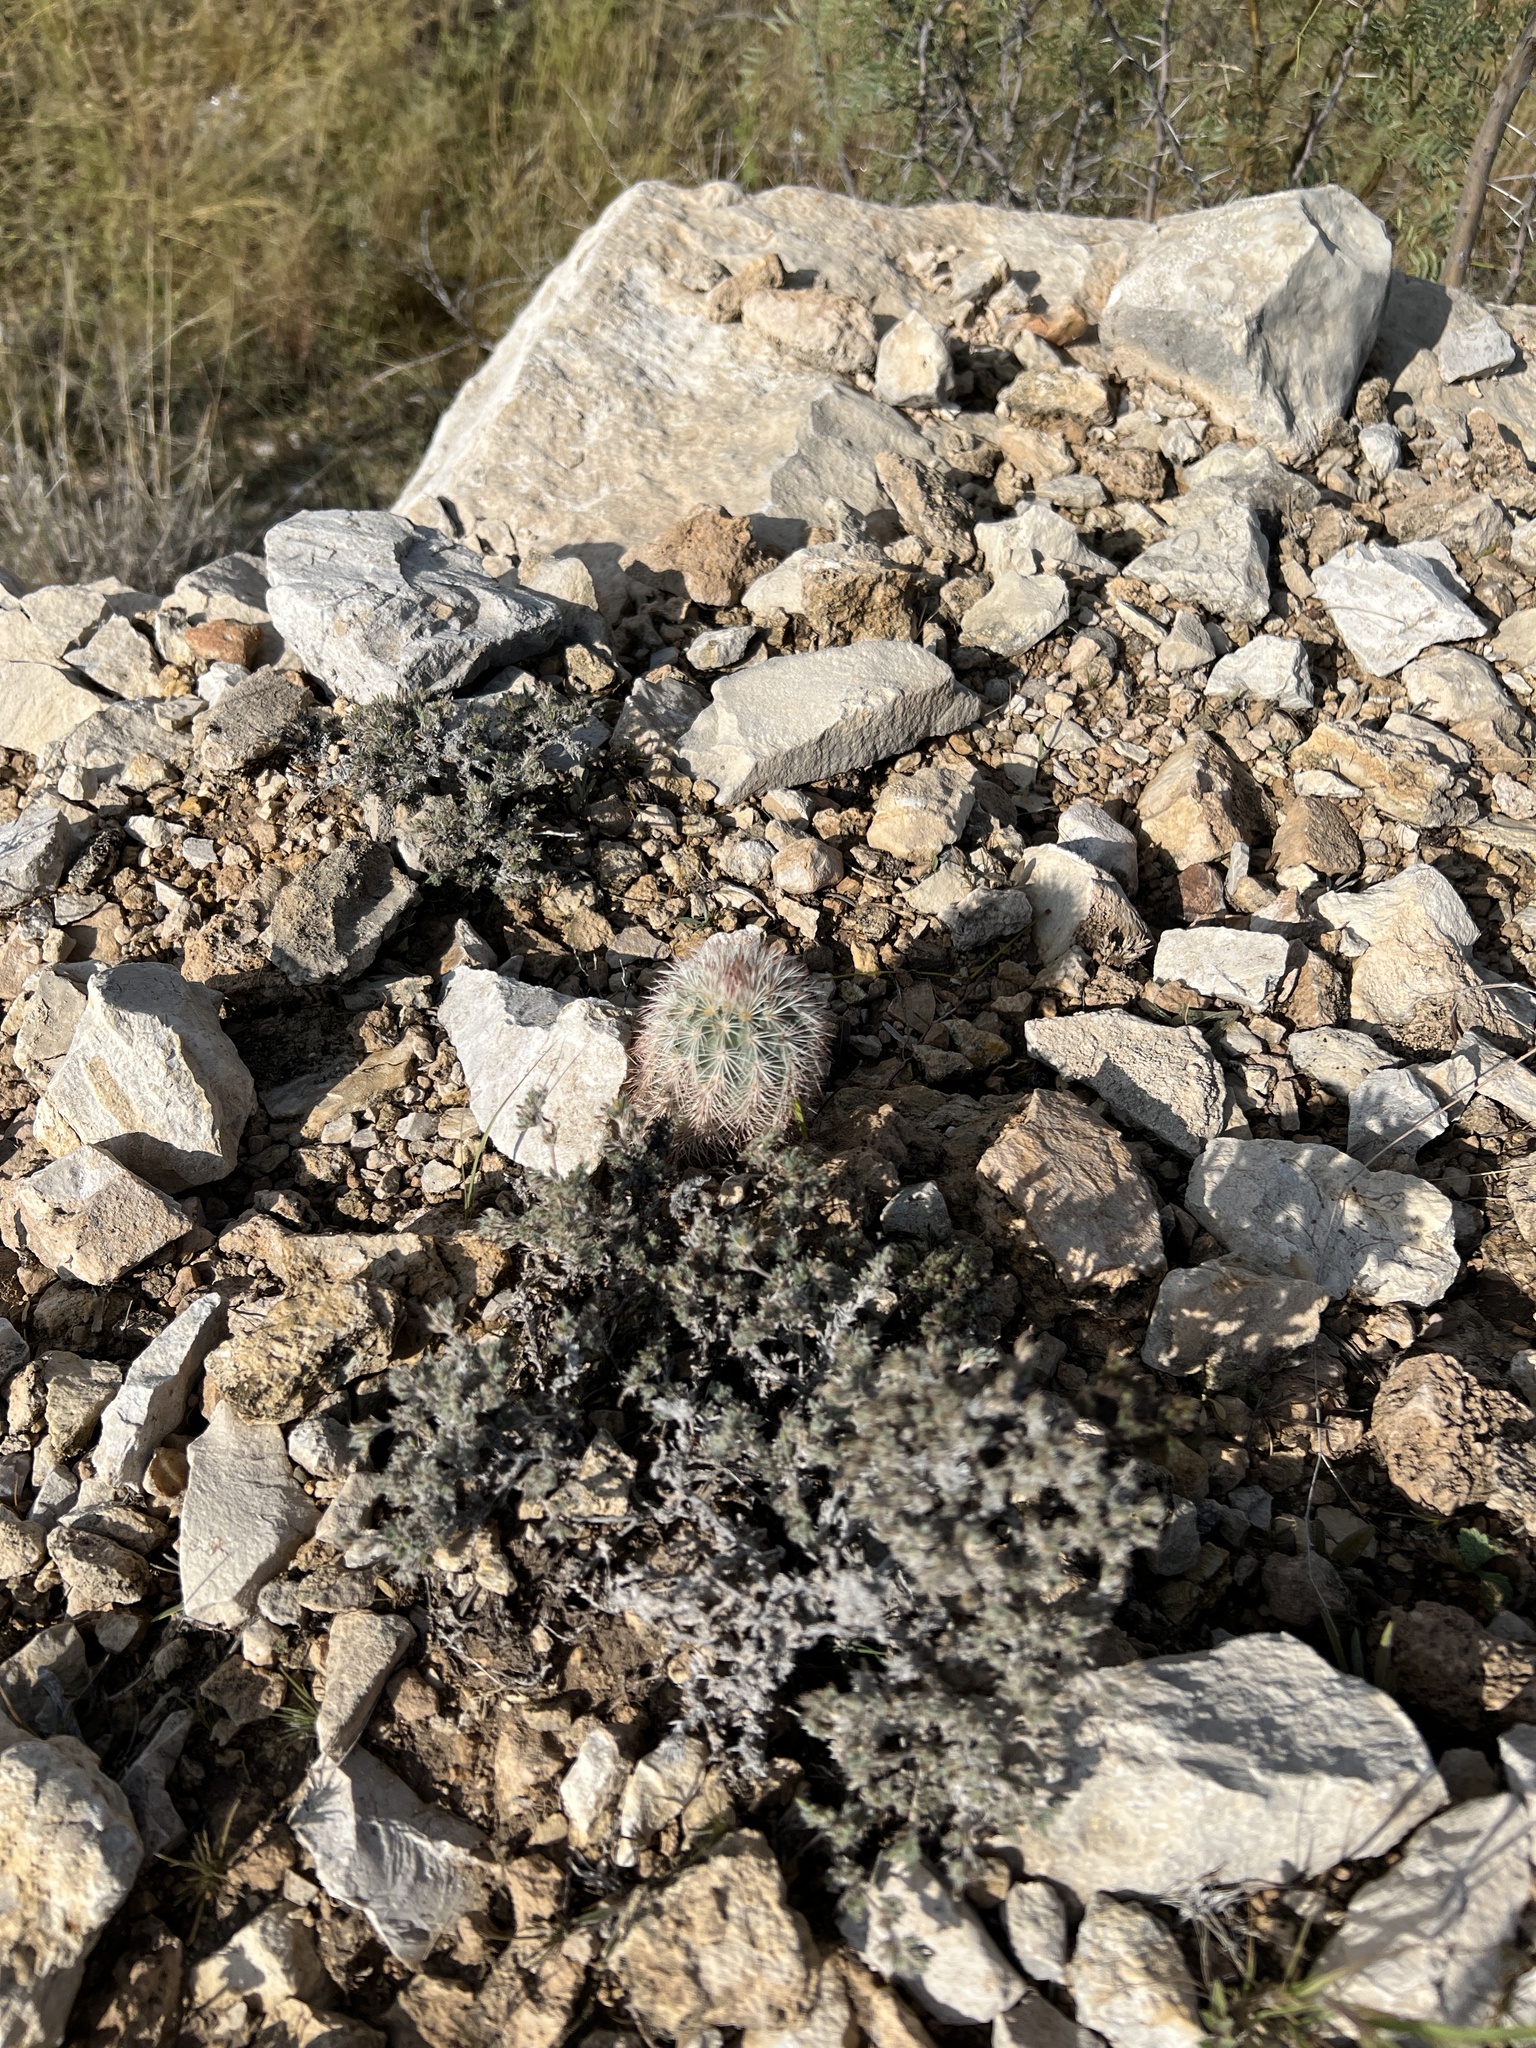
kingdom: Plantae
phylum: Tracheophyta
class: Magnoliopsida
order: Caryophyllales
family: Cactaceae
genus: Echinocereus
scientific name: Echinocereus dasyacanthus
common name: Spiny hedgehog cactus
